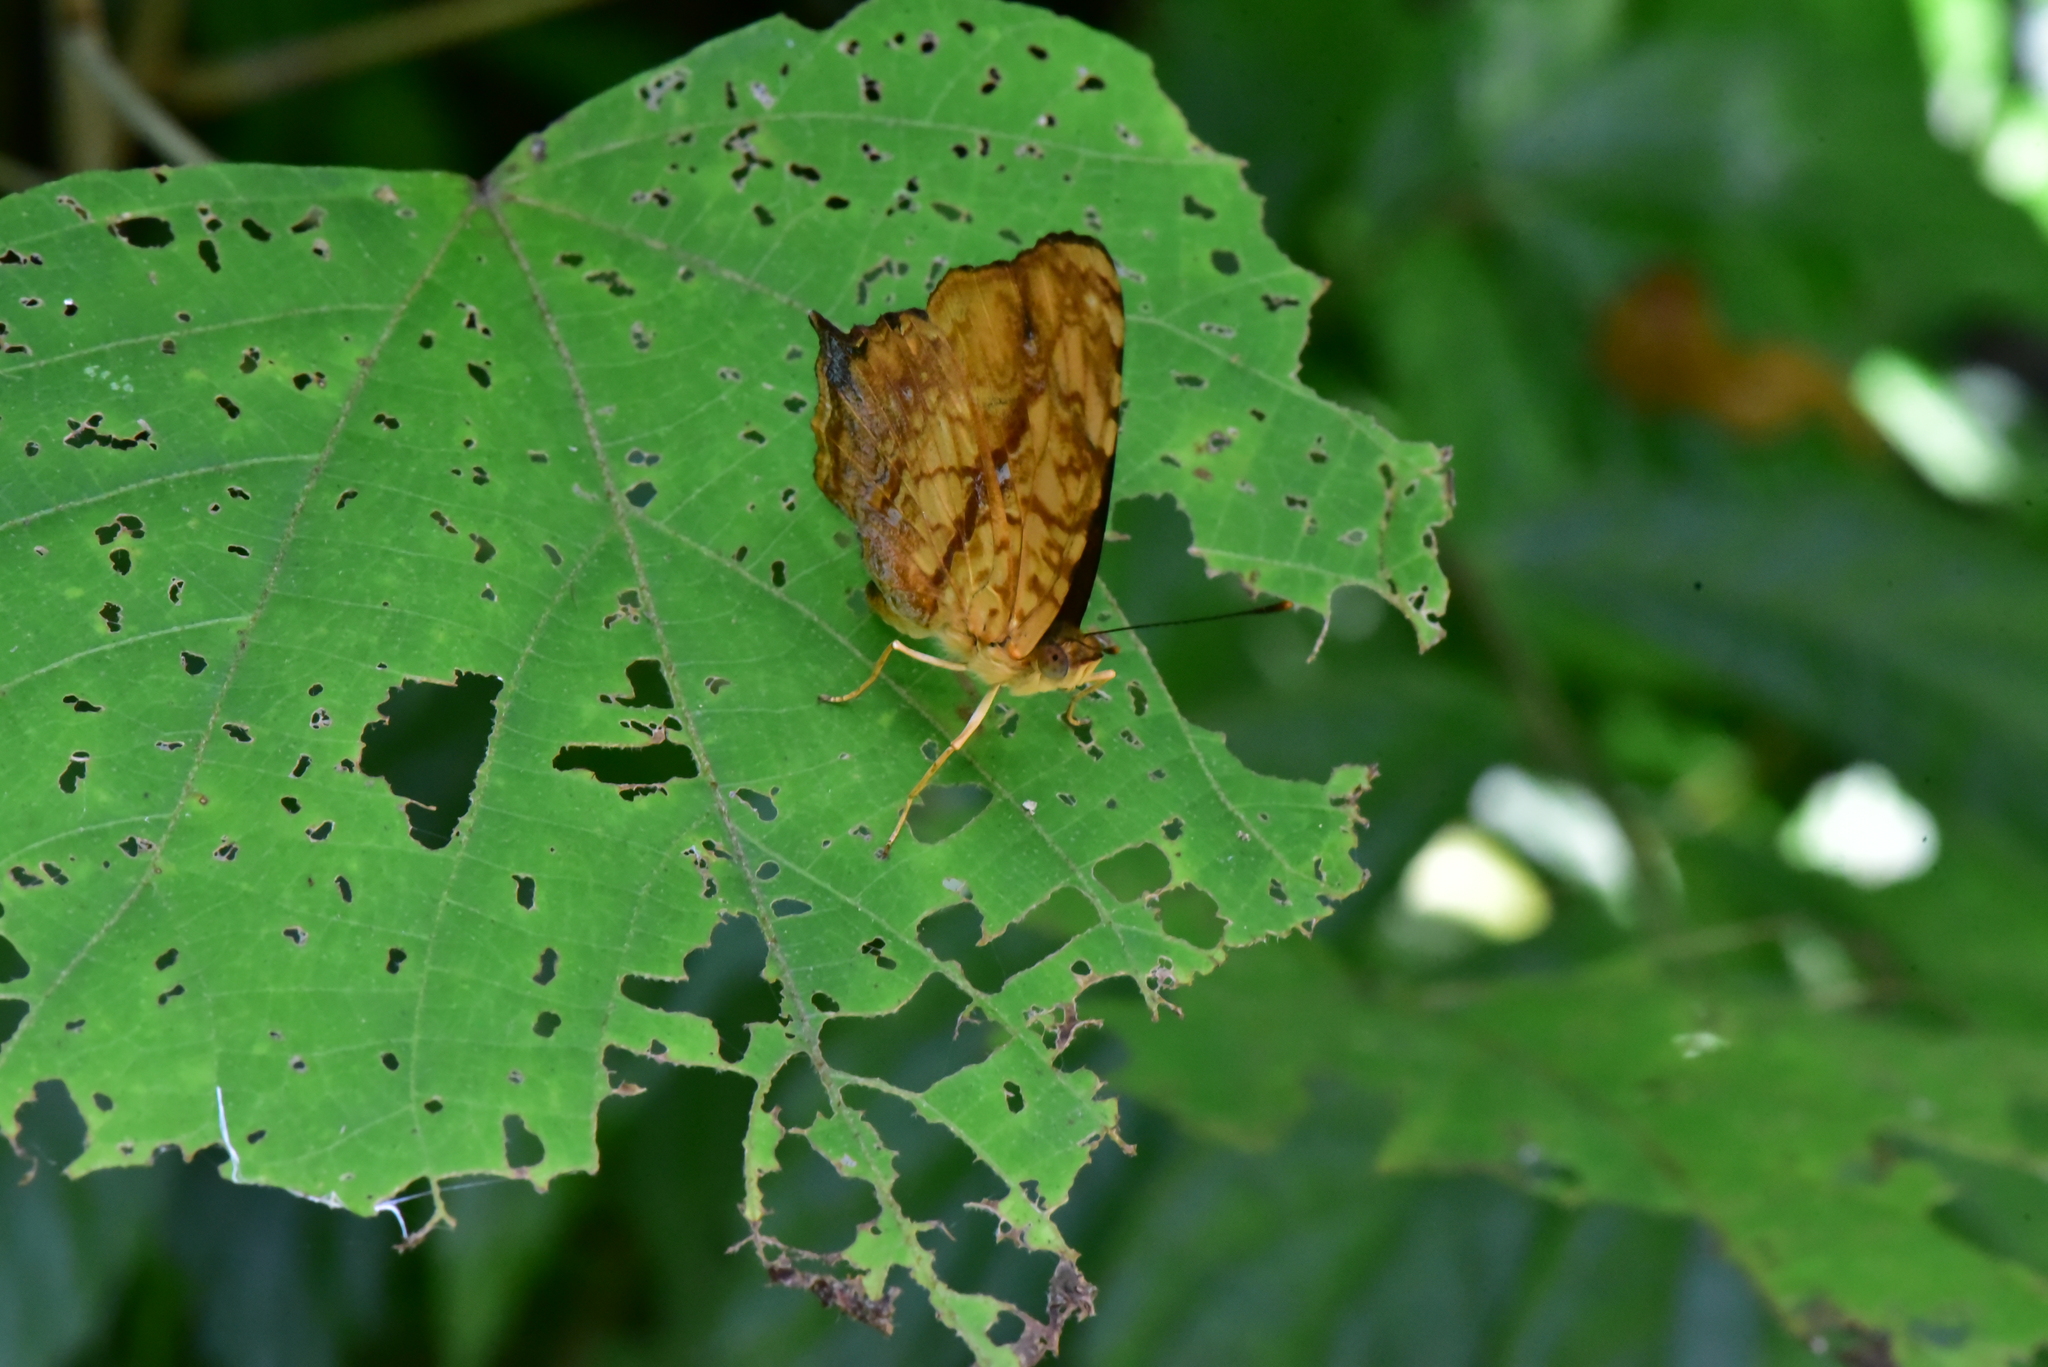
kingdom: Animalia
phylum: Arthropoda
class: Insecta
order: Lepidoptera
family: Nymphalidae
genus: Symbrenthia
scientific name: Symbrenthia hypselis
